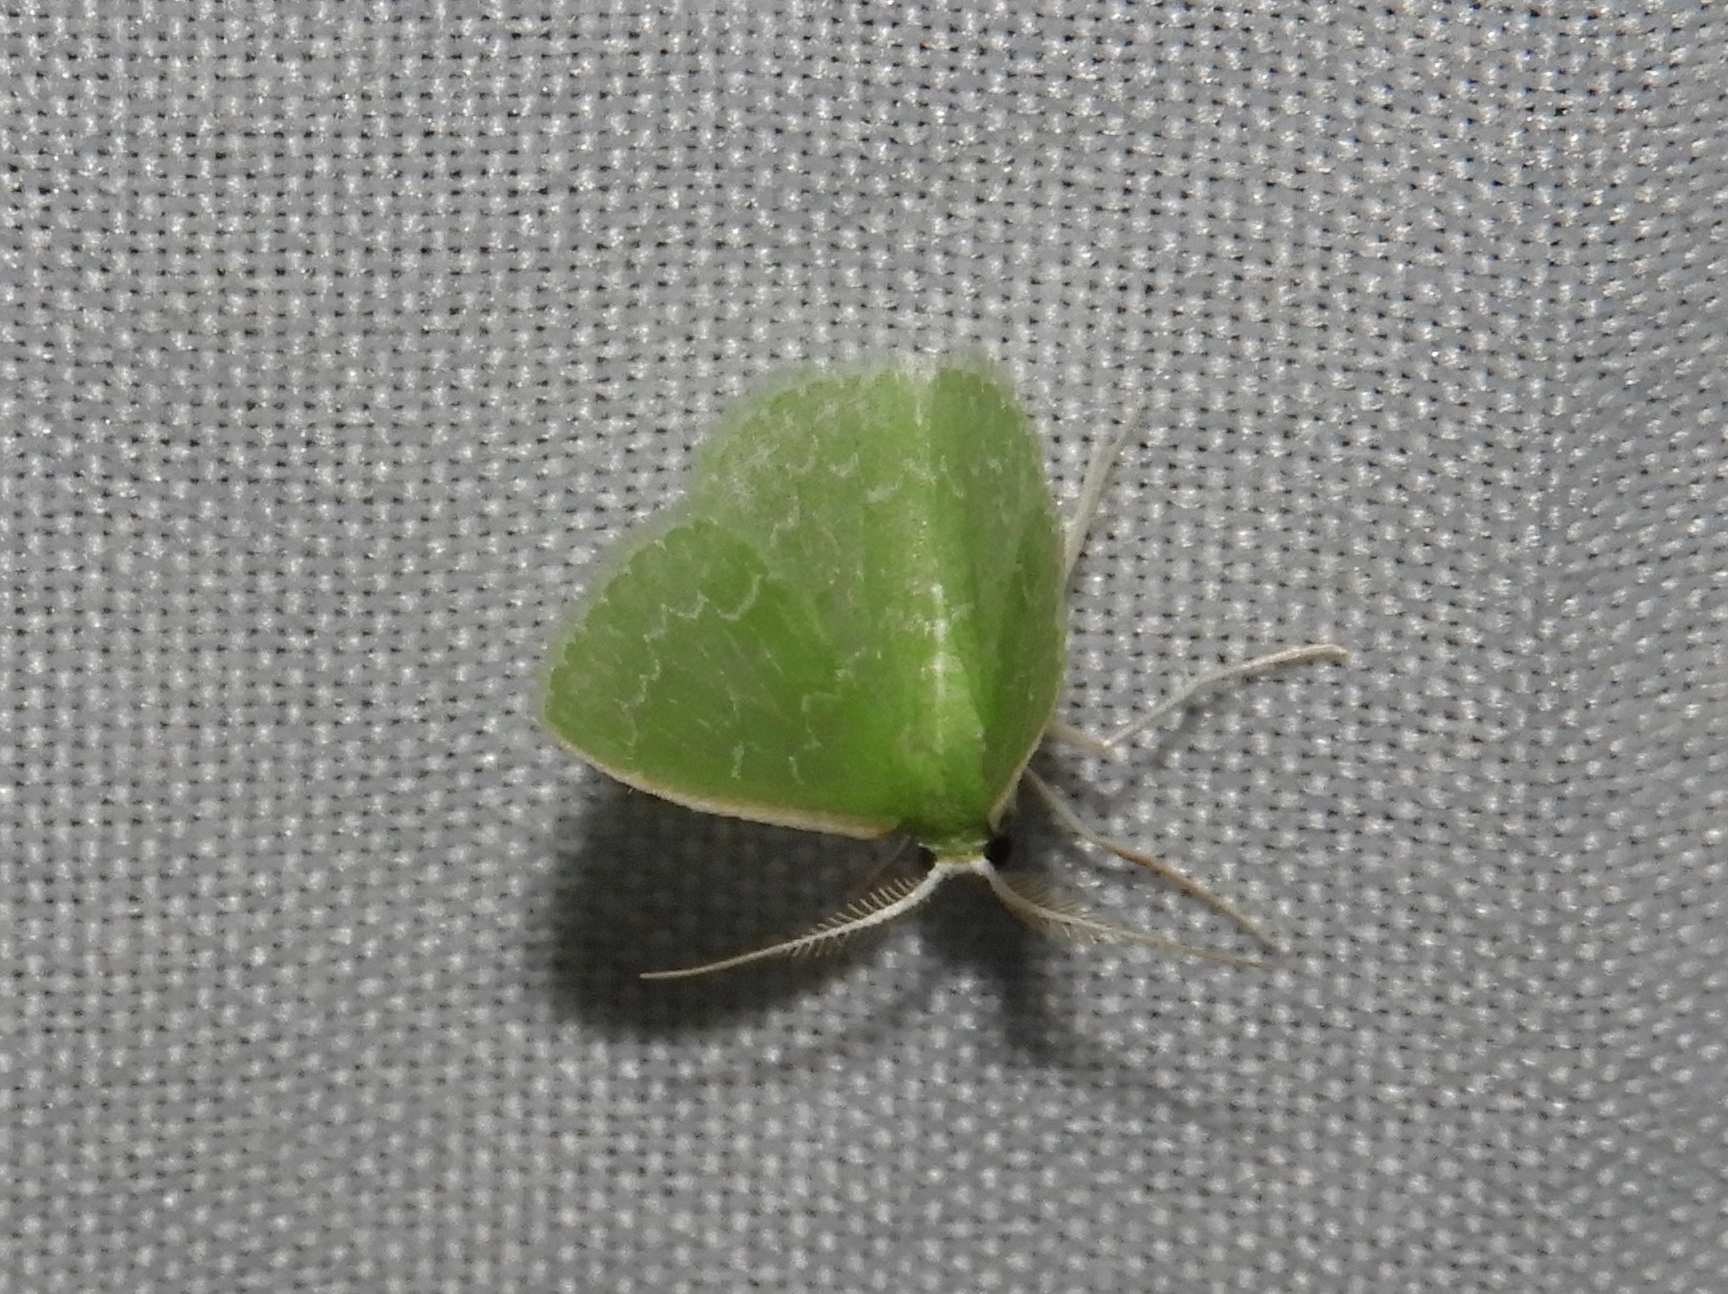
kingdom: Animalia
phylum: Arthropoda
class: Insecta
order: Lepidoptera
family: Geometridae
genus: Synchlora
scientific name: Synchlora frondaria
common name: Southern emerald
